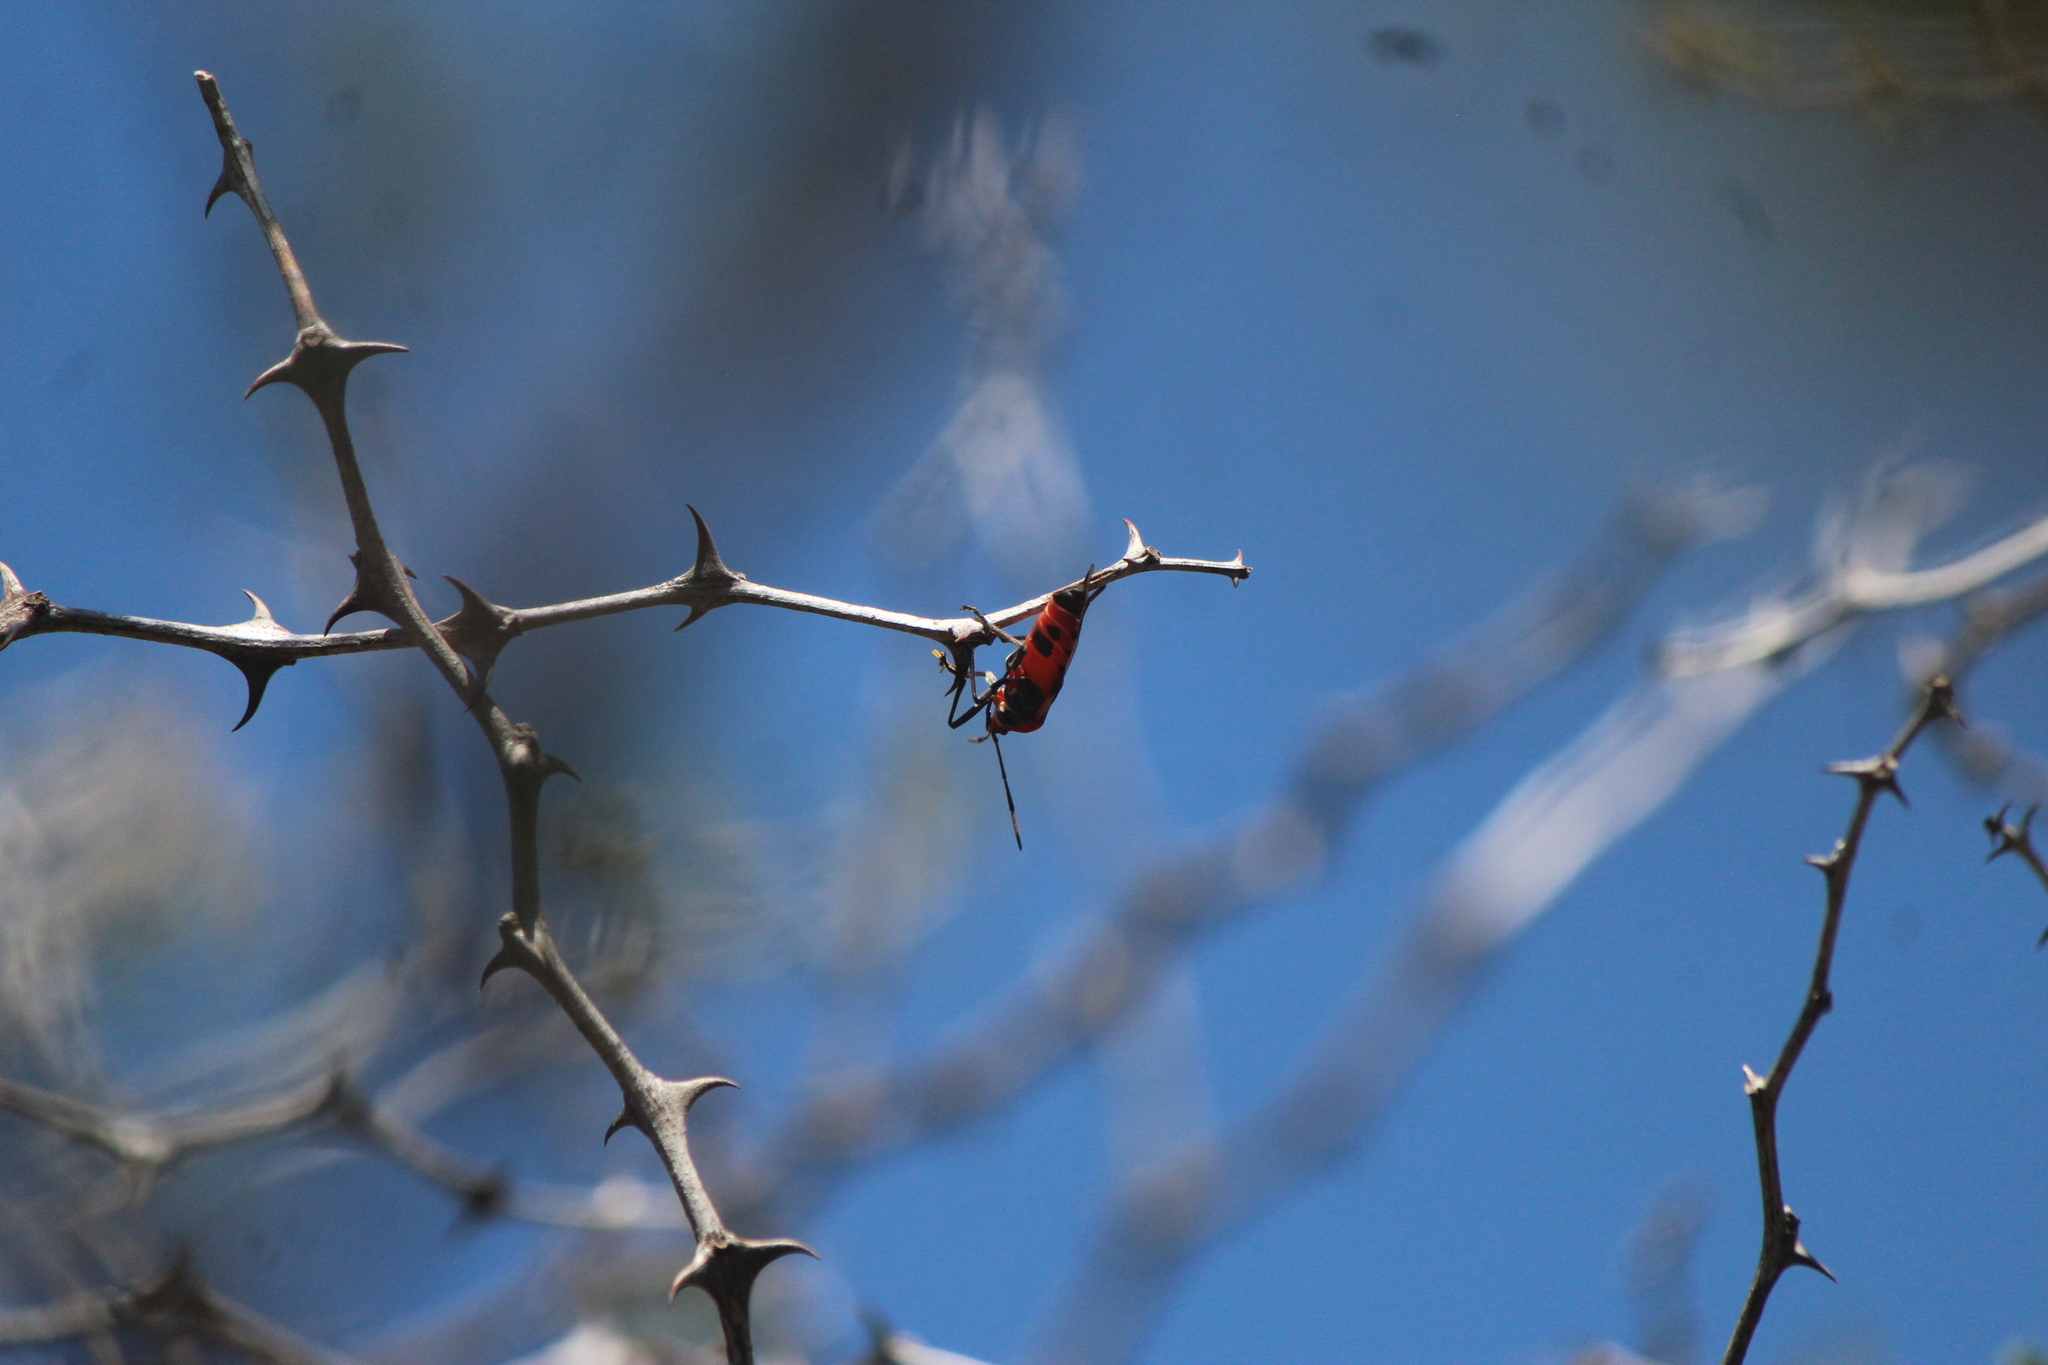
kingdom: Animalia
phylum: Arthropoda
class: Insecta
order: Hemiptera
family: Lygaeidae
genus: Oncopeltus
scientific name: Oncopeltus fasciatus
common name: Large milkweed bug
